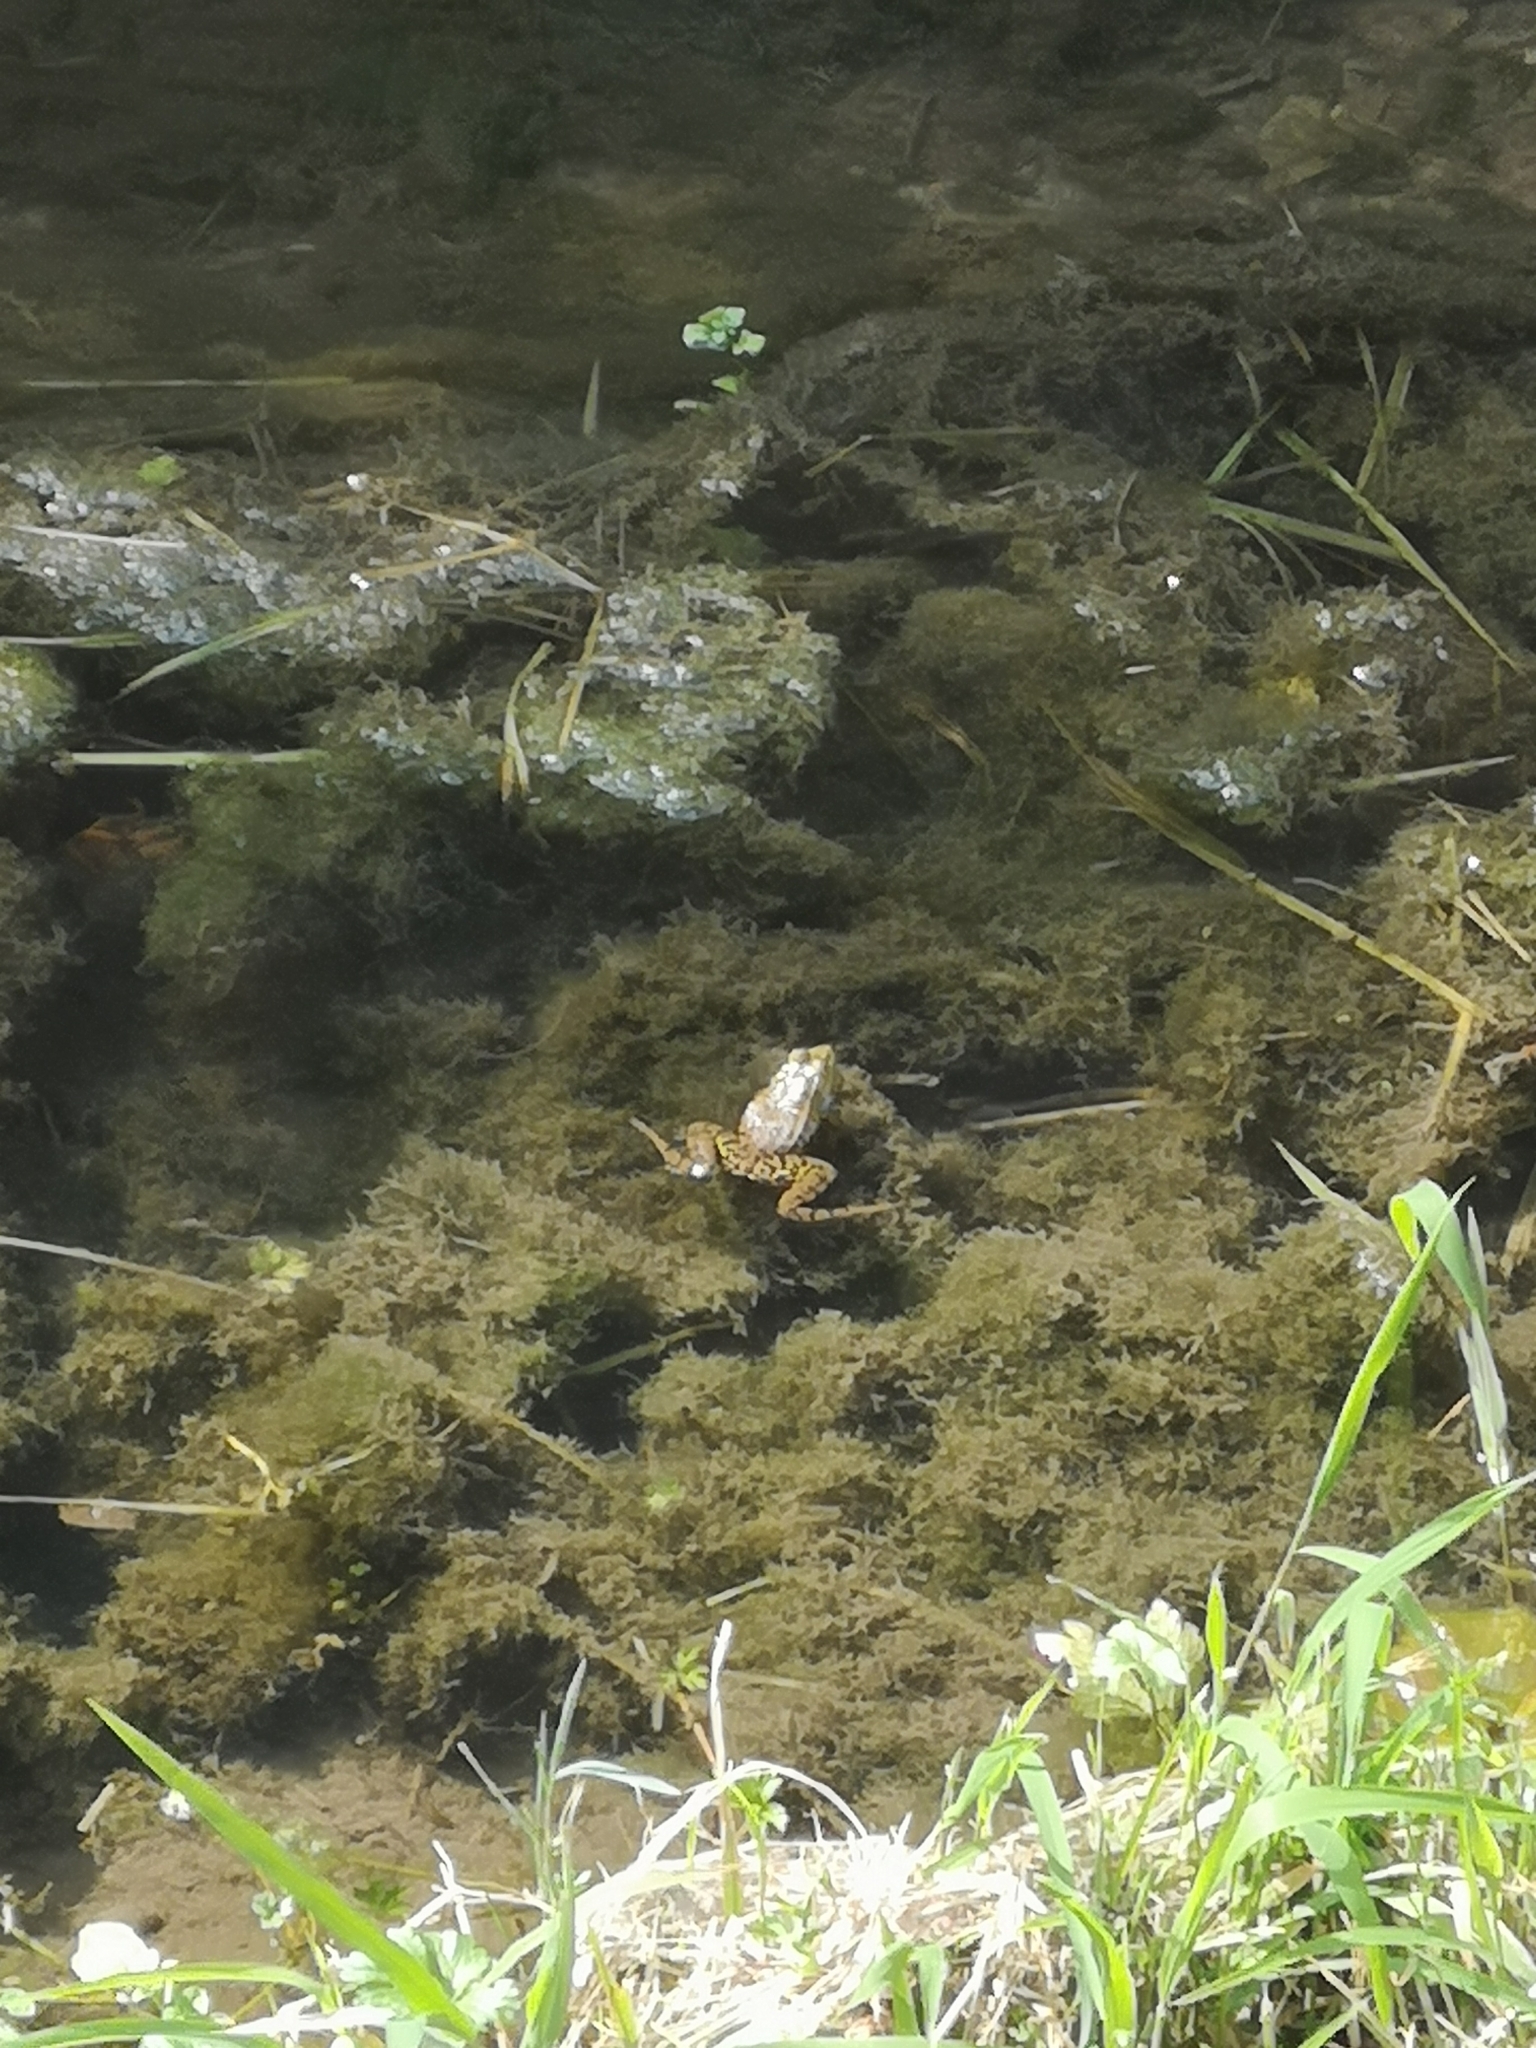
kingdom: Animalia
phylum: Chordata
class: Amphibia
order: Anura
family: Ranidae
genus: Pelophylax
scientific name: Pelophylax
